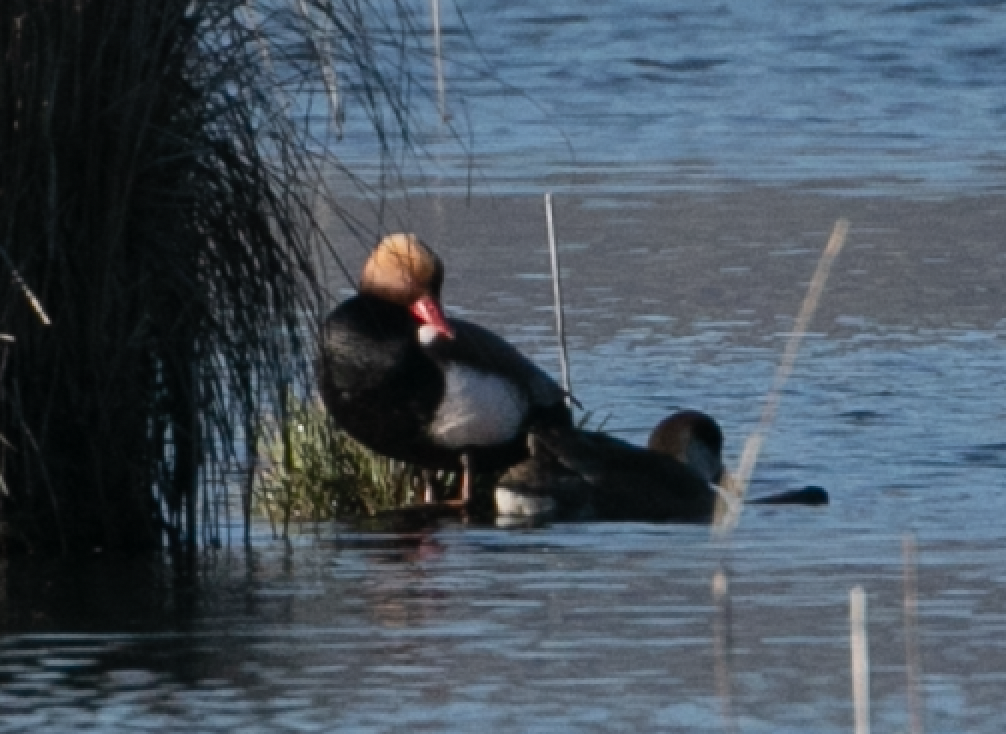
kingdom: Animalia
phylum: Chordata
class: Aves
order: Anseriformes
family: Anatidae
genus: Netta
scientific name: Netta rufina
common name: Red-crested pochard
